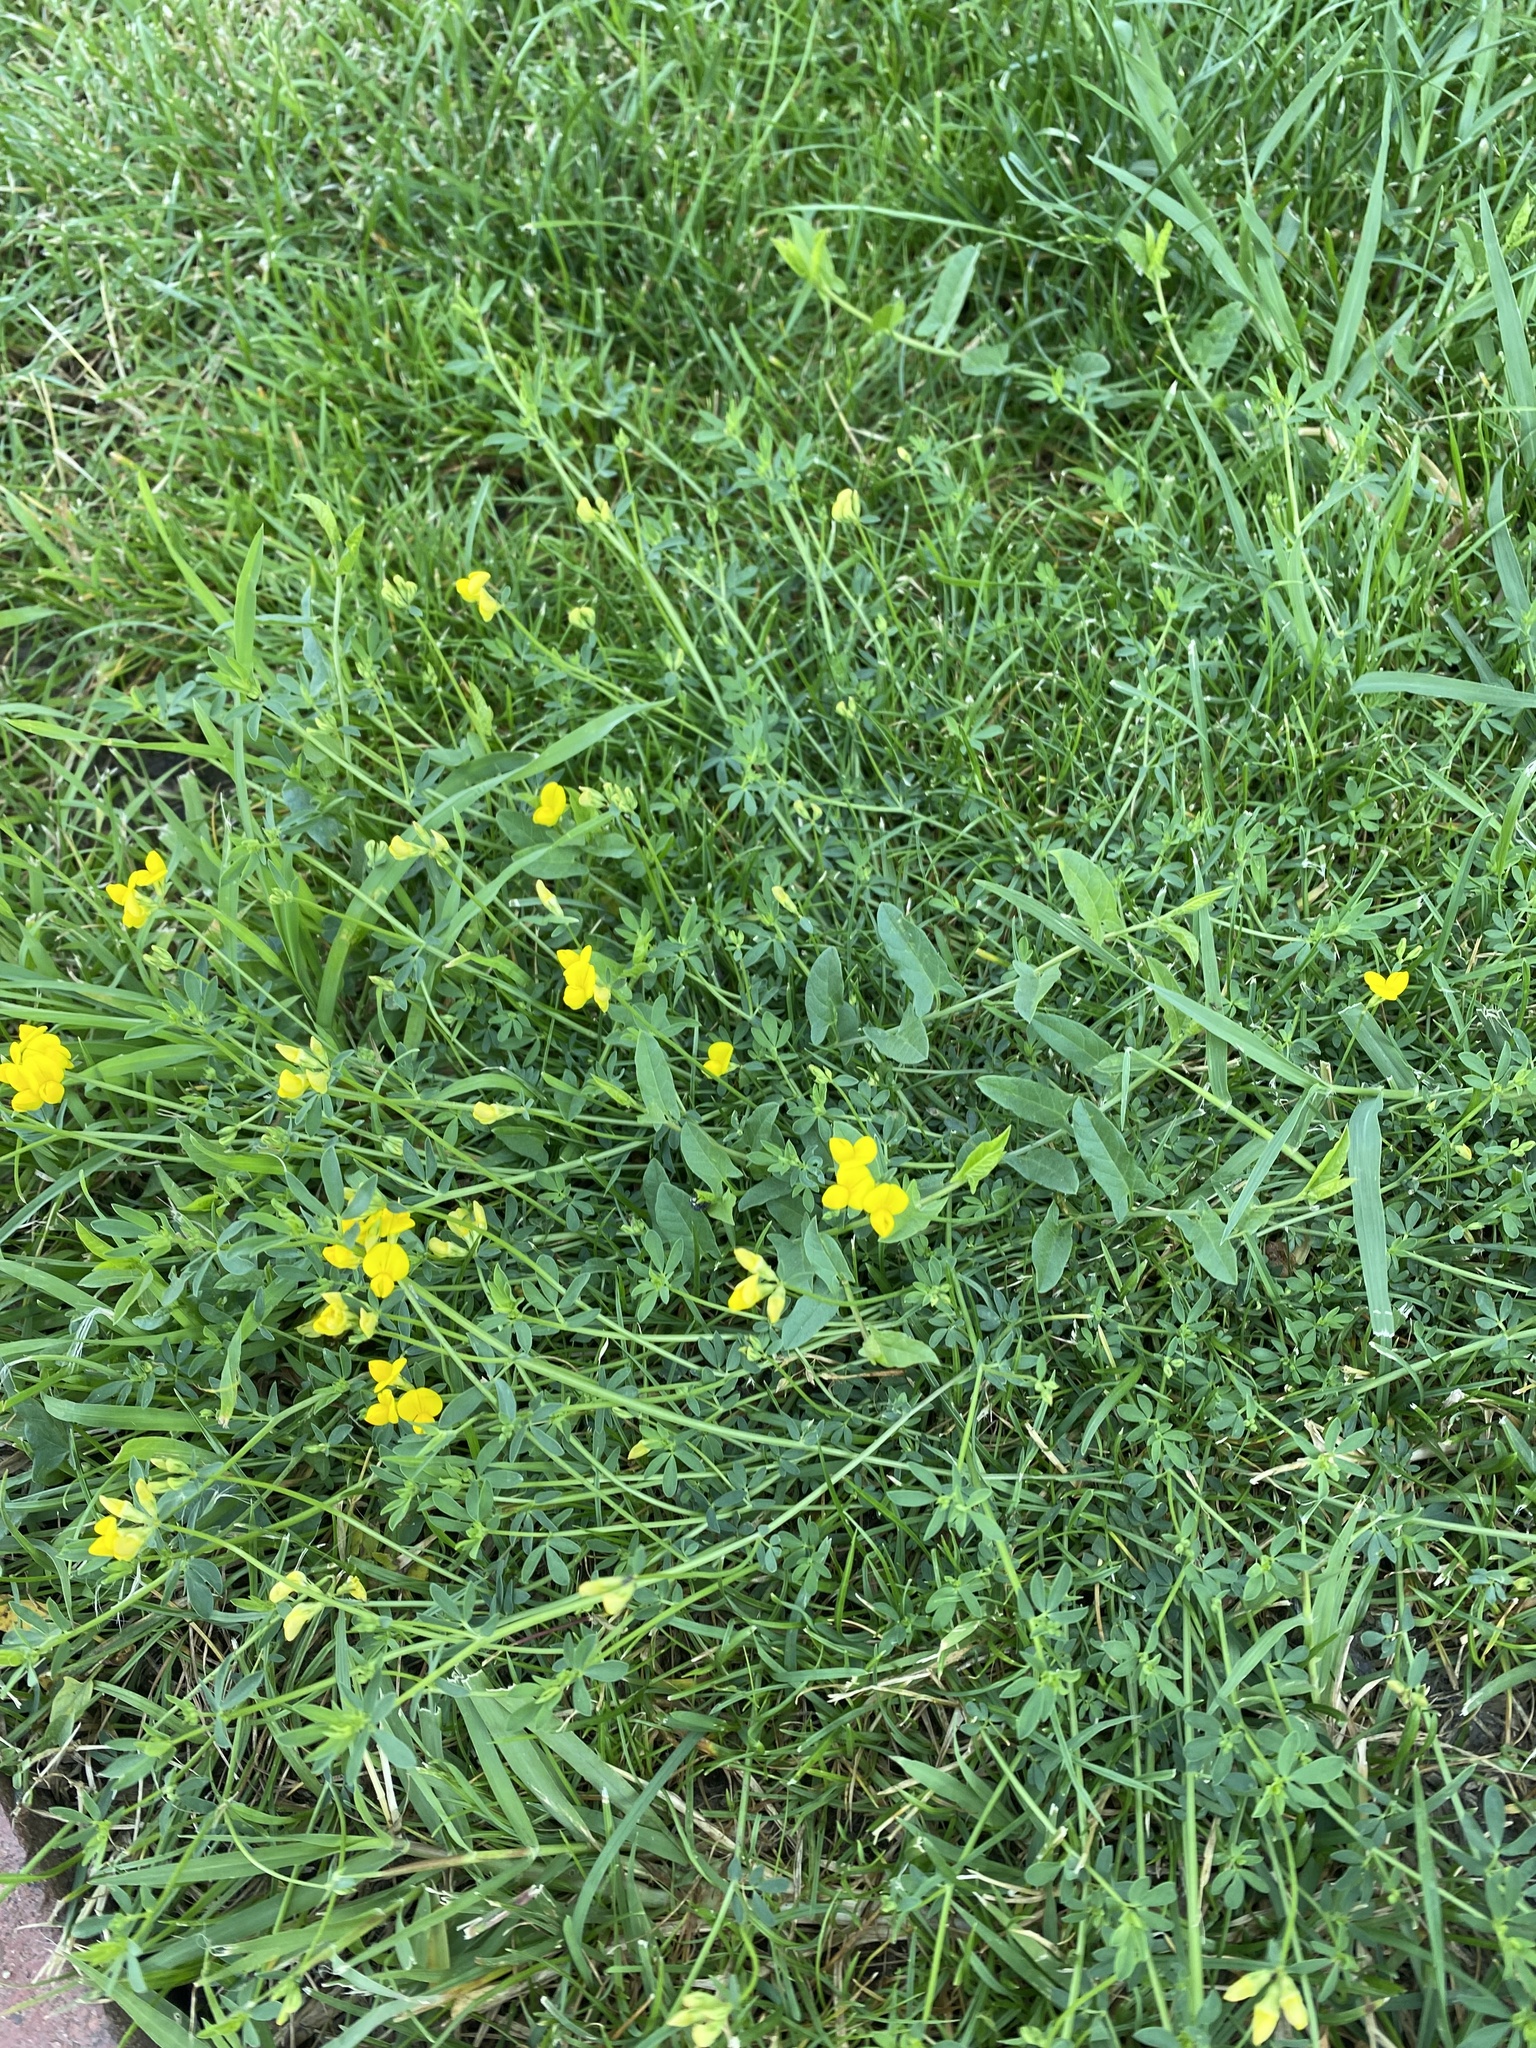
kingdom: Plantae
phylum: Tracheophyta
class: Magnoliopsida
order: Fabales
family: Fabaceae
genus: Lotus
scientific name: Lotus corniculatus
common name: Common bird's-foot-trefoil
